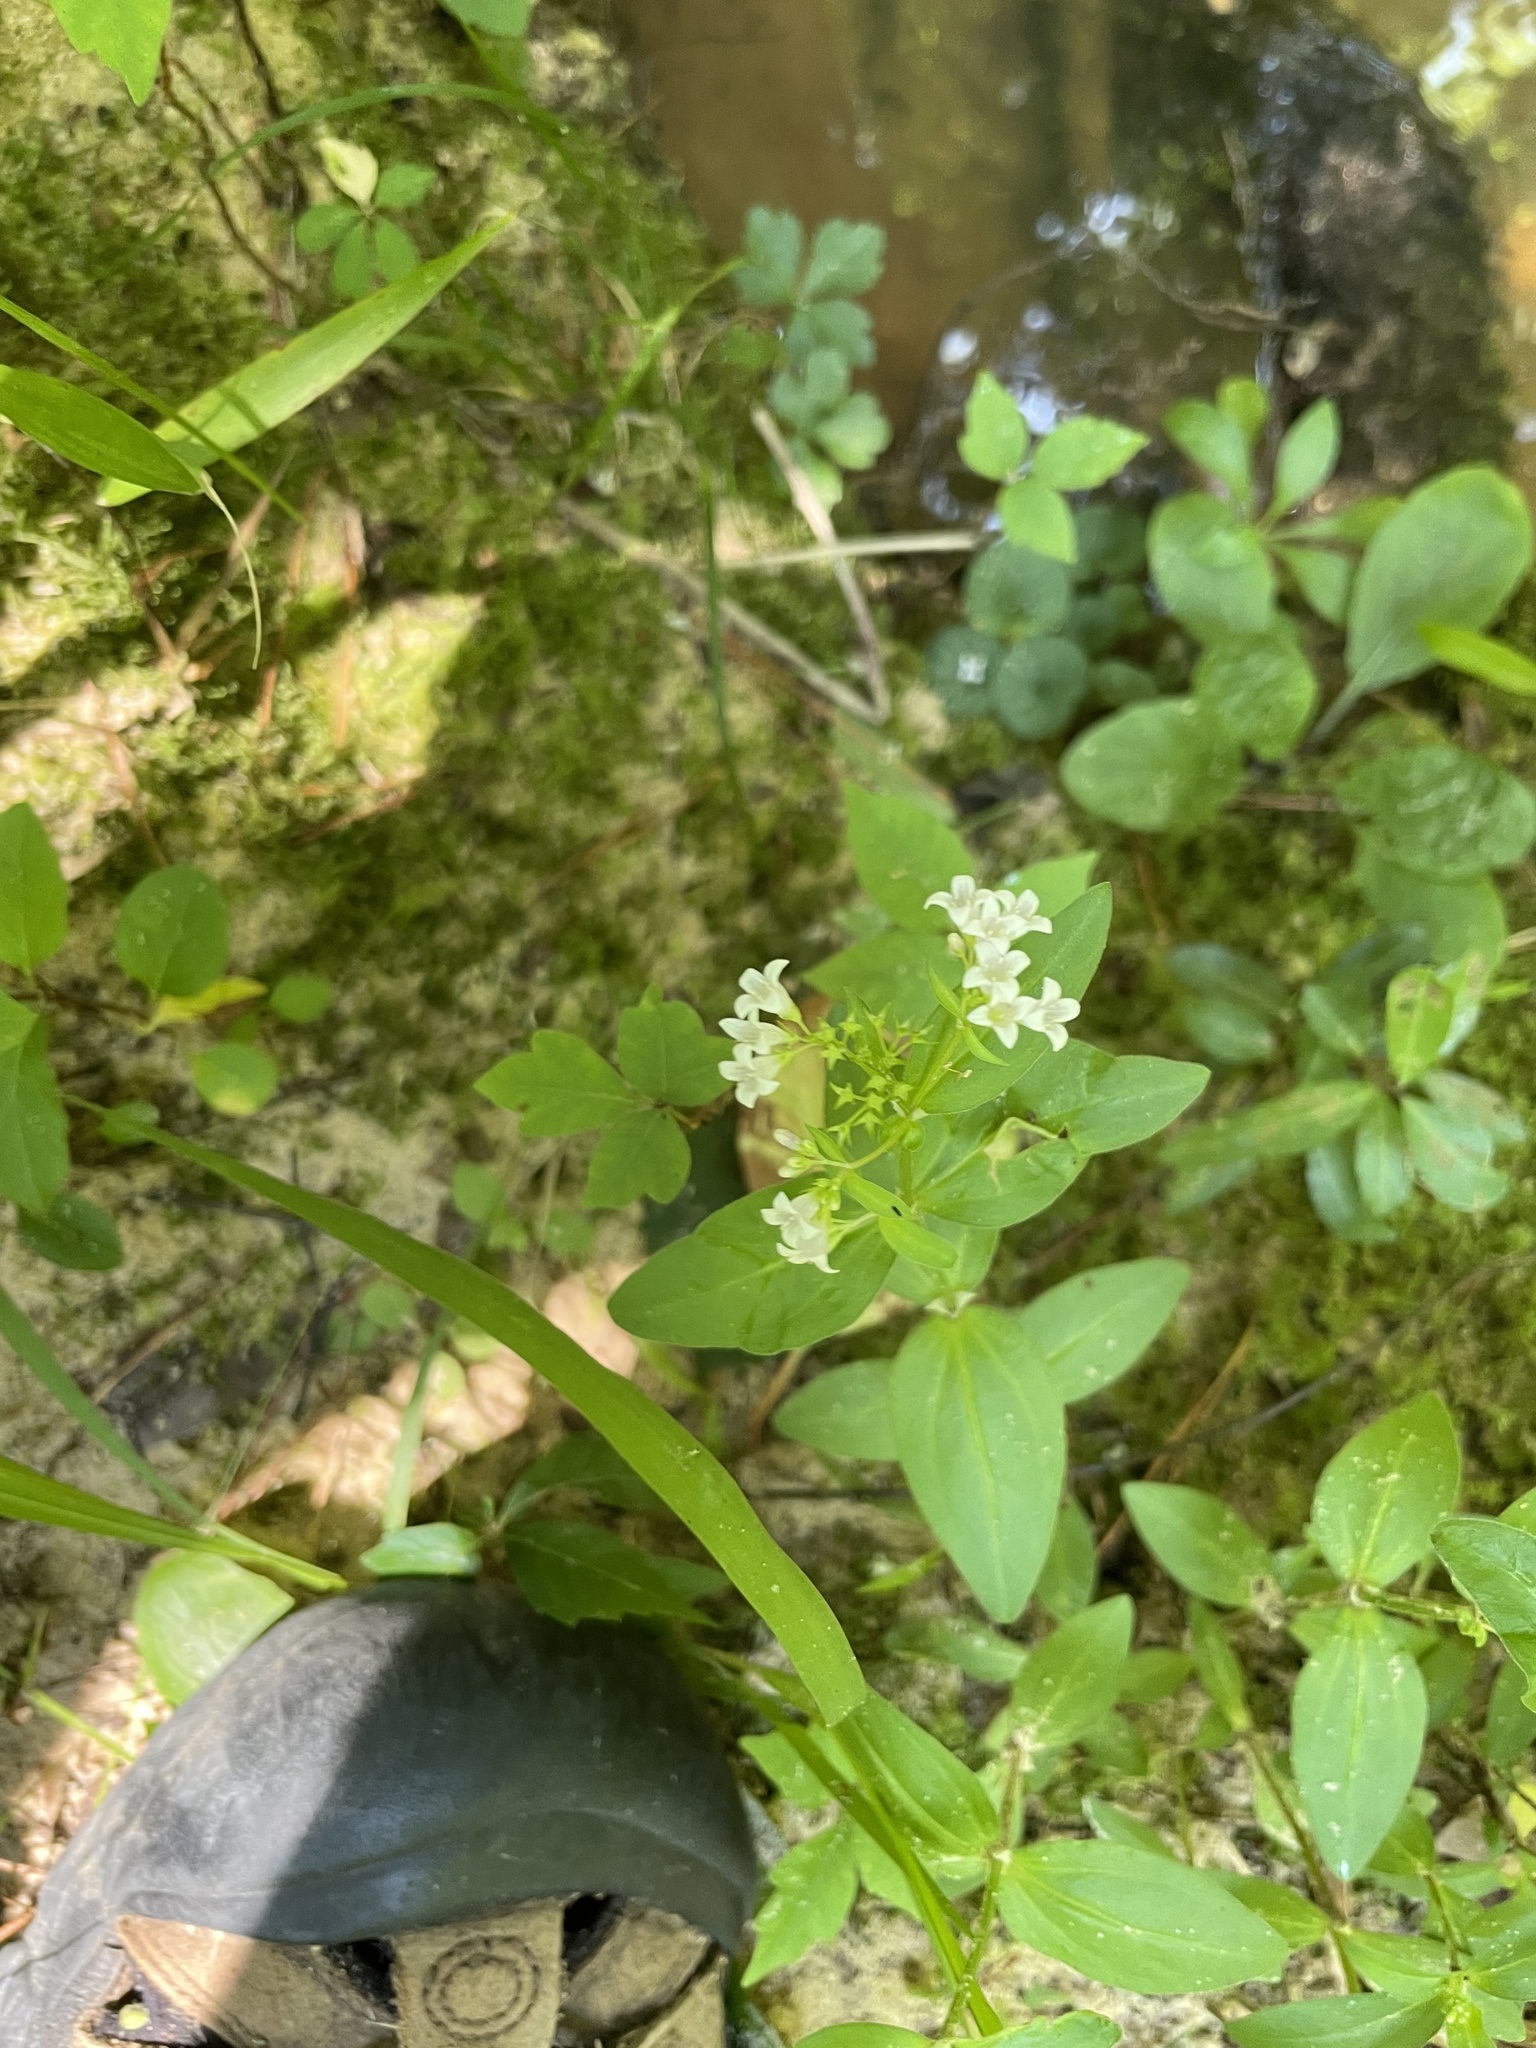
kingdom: Plantae
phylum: Tracheophyta
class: Magnoliopsida
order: Gentianales
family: Rubiaceae
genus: Houstonia
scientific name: Houstonia purpurea
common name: Summer bluet
